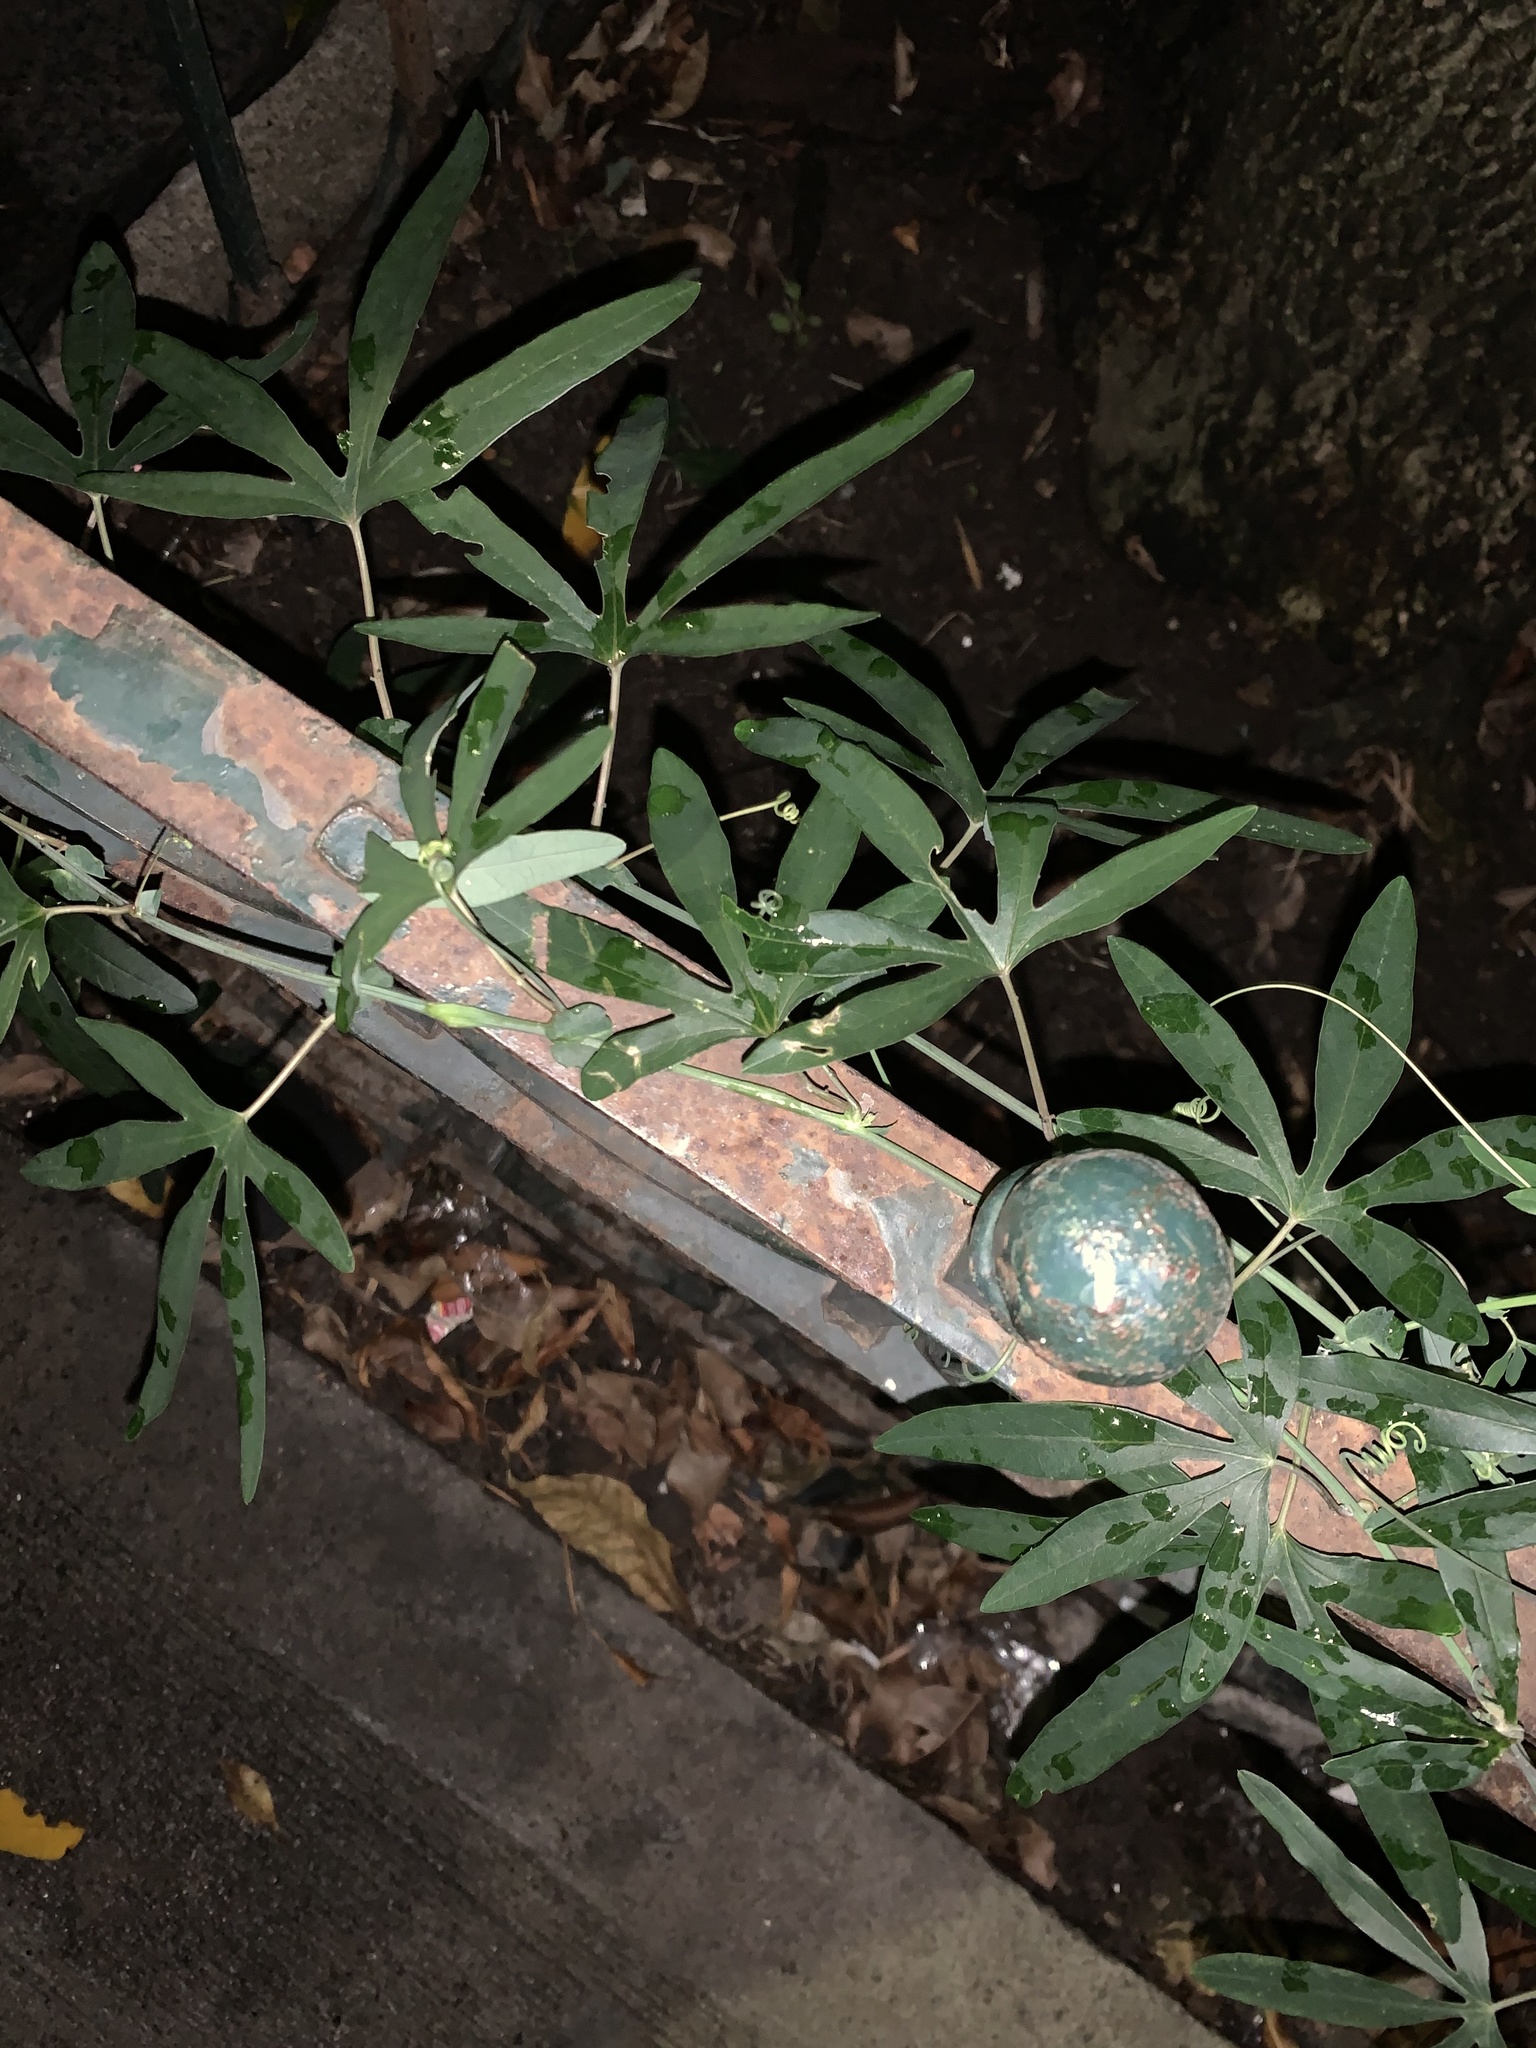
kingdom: Plantae
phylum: Tracheophyta
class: Magnoliopsida
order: Malpighiales
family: Passifloraceae
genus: Passiflora
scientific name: Passiflora caerulea
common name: Blue passionflower
